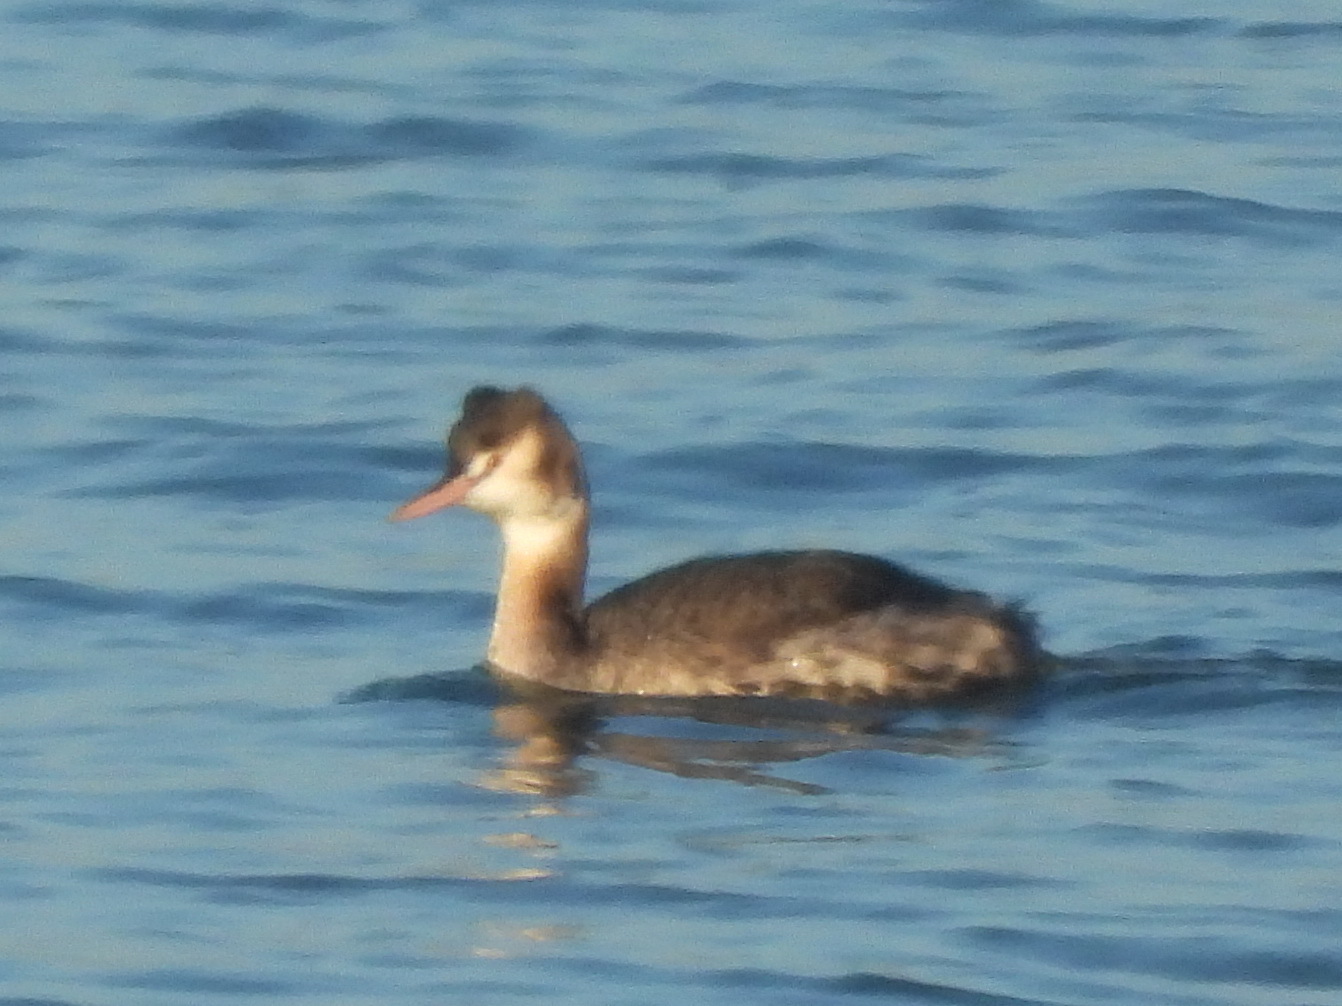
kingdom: Animalia
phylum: Chordata
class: Aves
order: Podicipediformes
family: Podicipedidae
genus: Podiceps
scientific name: Podiceps cristatus
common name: Great crested grebe
